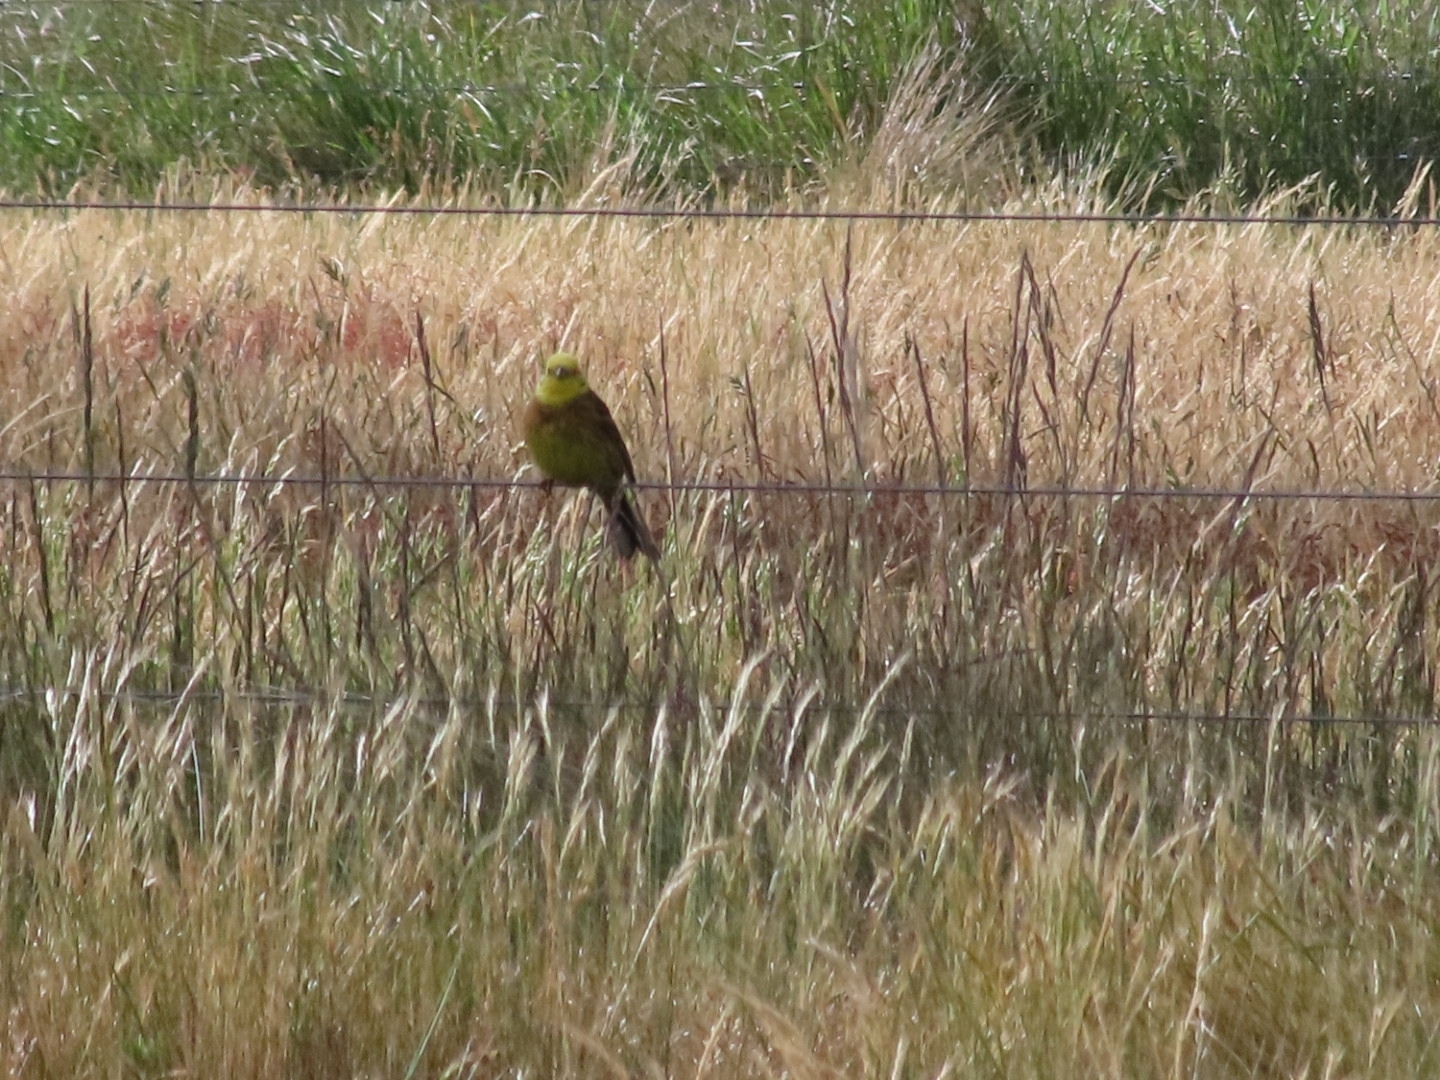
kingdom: Animalia
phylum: Chordata
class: Aves
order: Passeriformes
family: Emberizidae
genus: Emberiza
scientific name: Emberiza citrinella
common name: Yellowhammer
